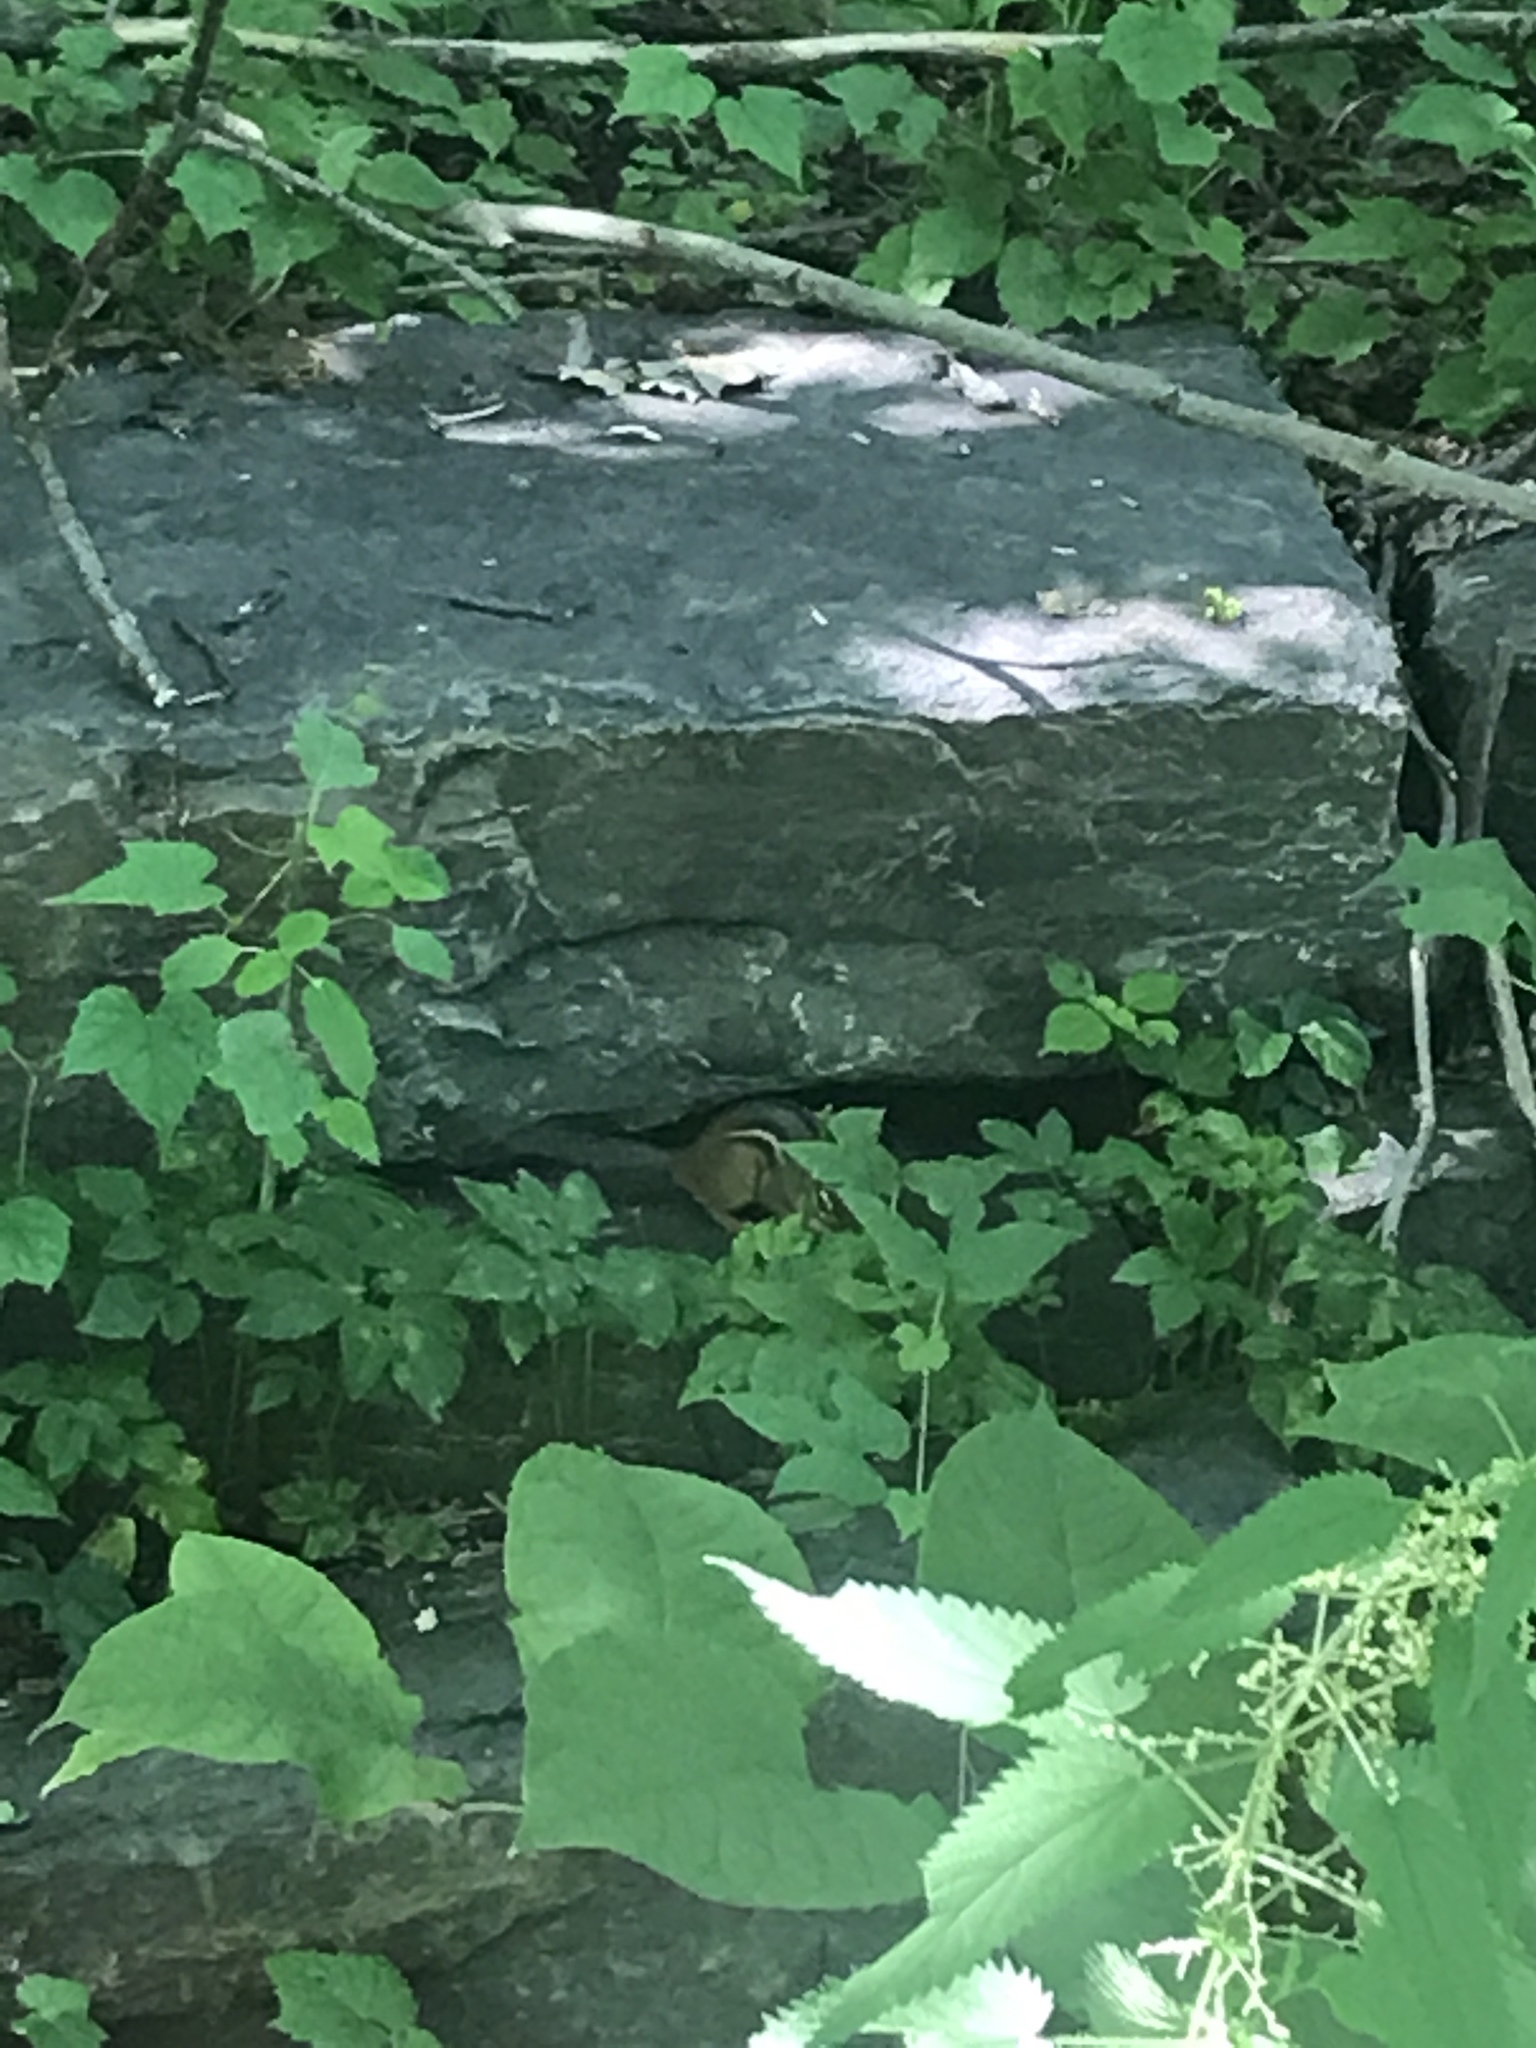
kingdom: Animalia
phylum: Chordata
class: Mammalia
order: Rodentia
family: Sciuridae
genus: Tamias
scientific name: Tamias striatus
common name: Eastern chipmunk
